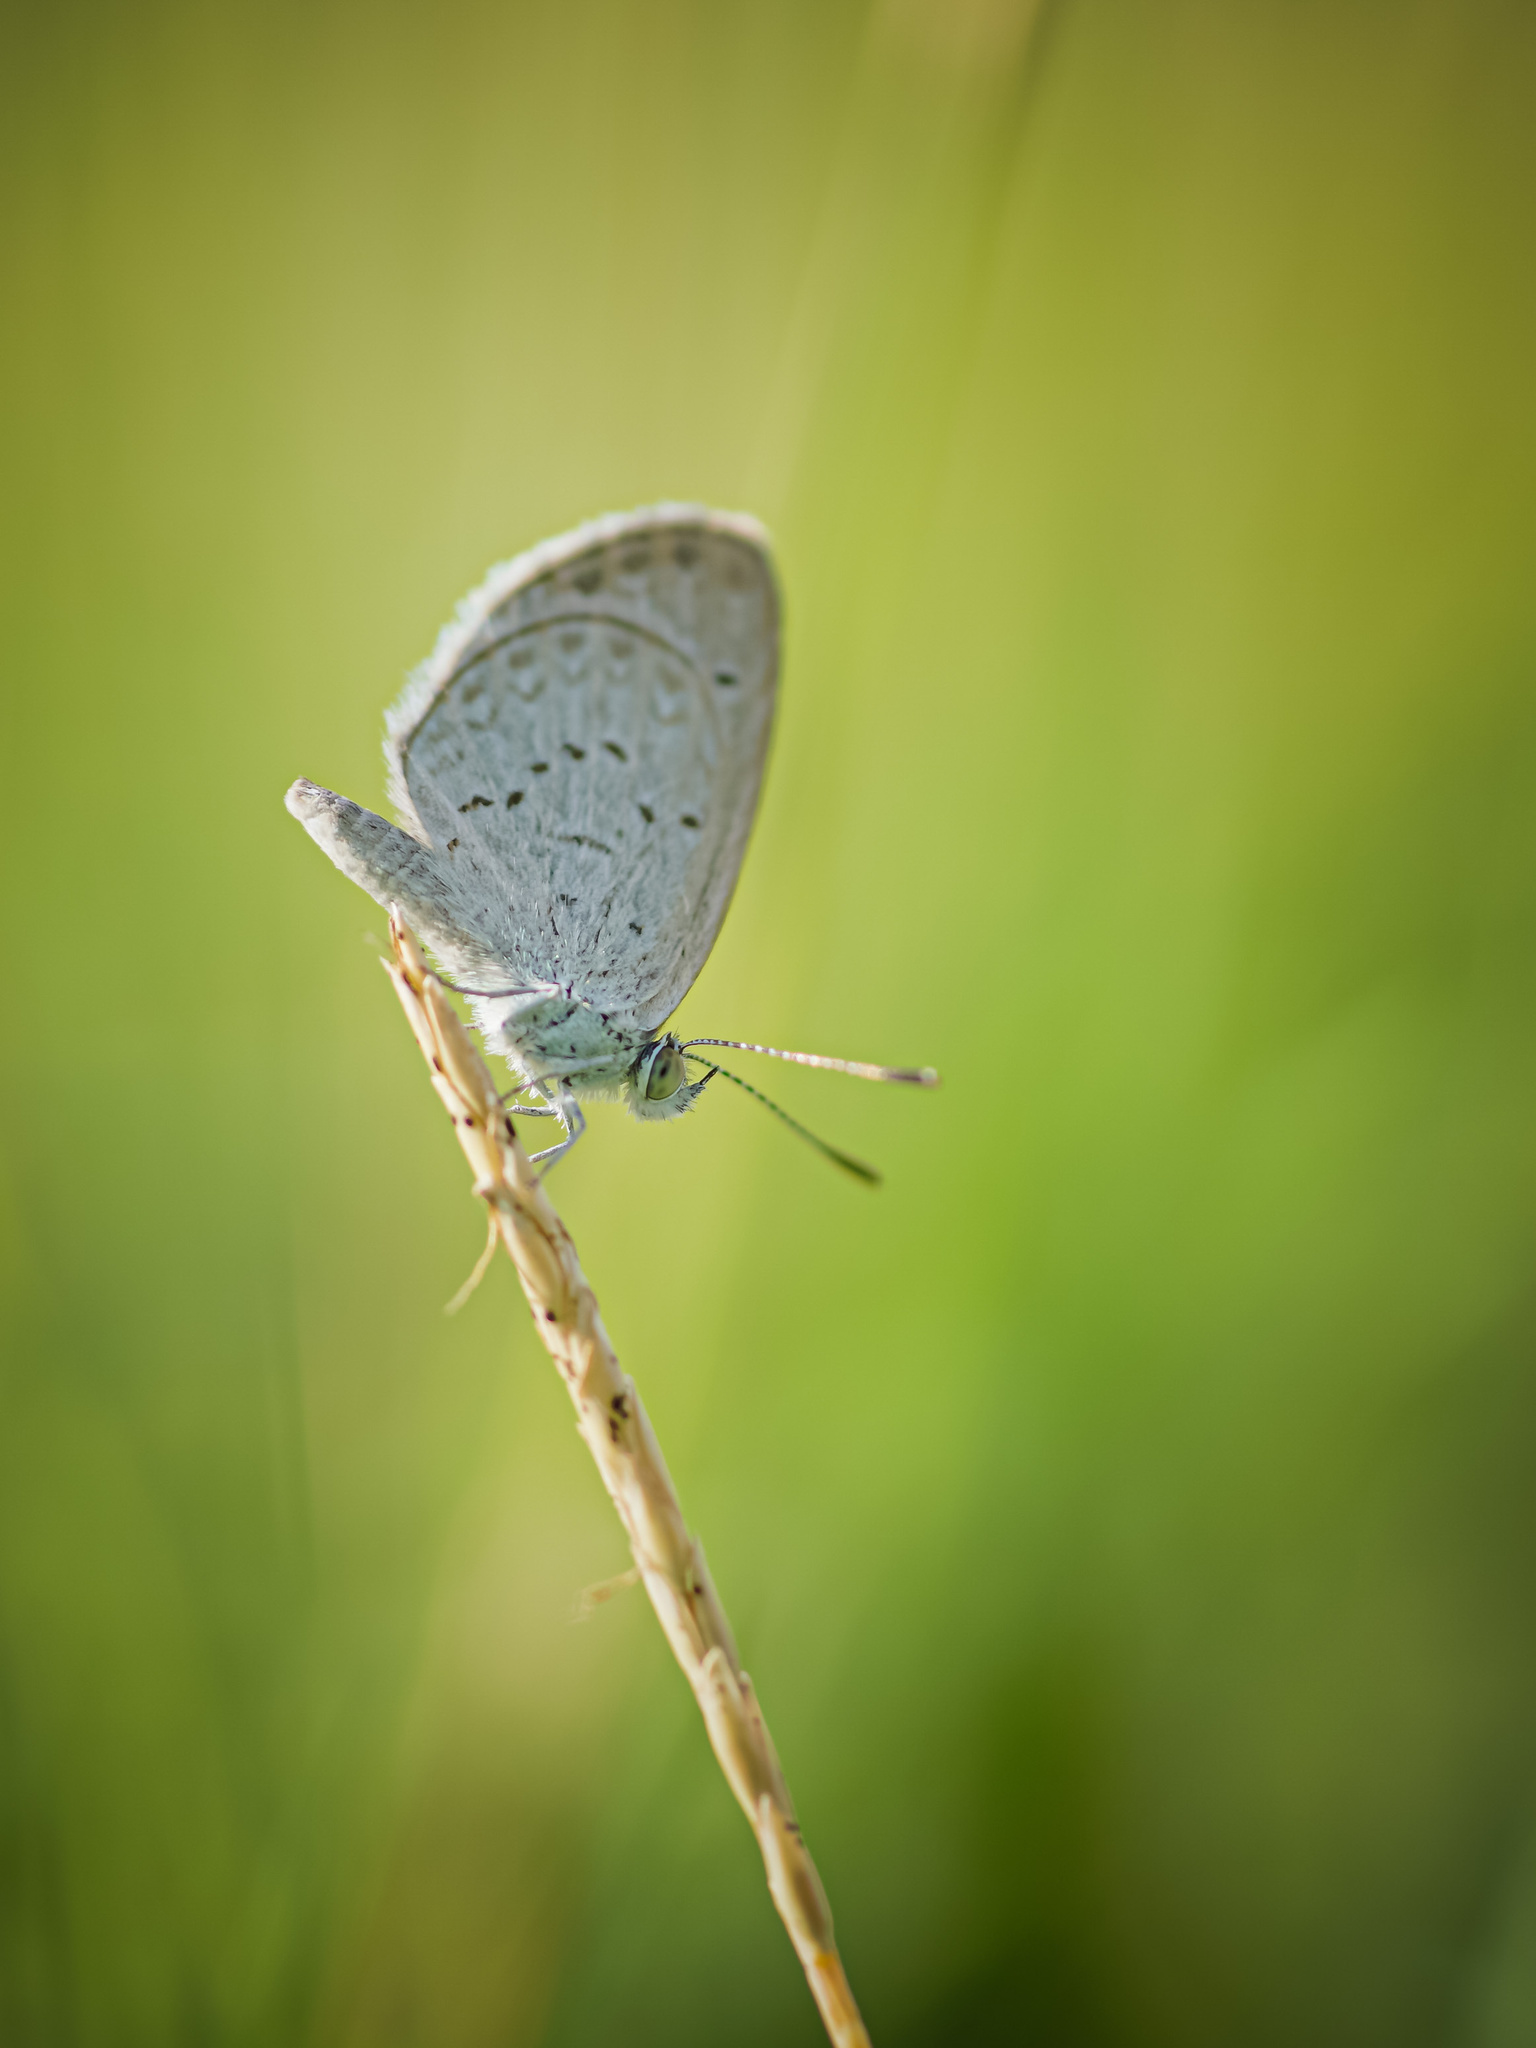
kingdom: Animalia
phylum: Arthropoda
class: Insecta
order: Lepidoptera
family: Lycaenidae
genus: Zizina
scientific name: Zizina otis
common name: Lesser grass blue
